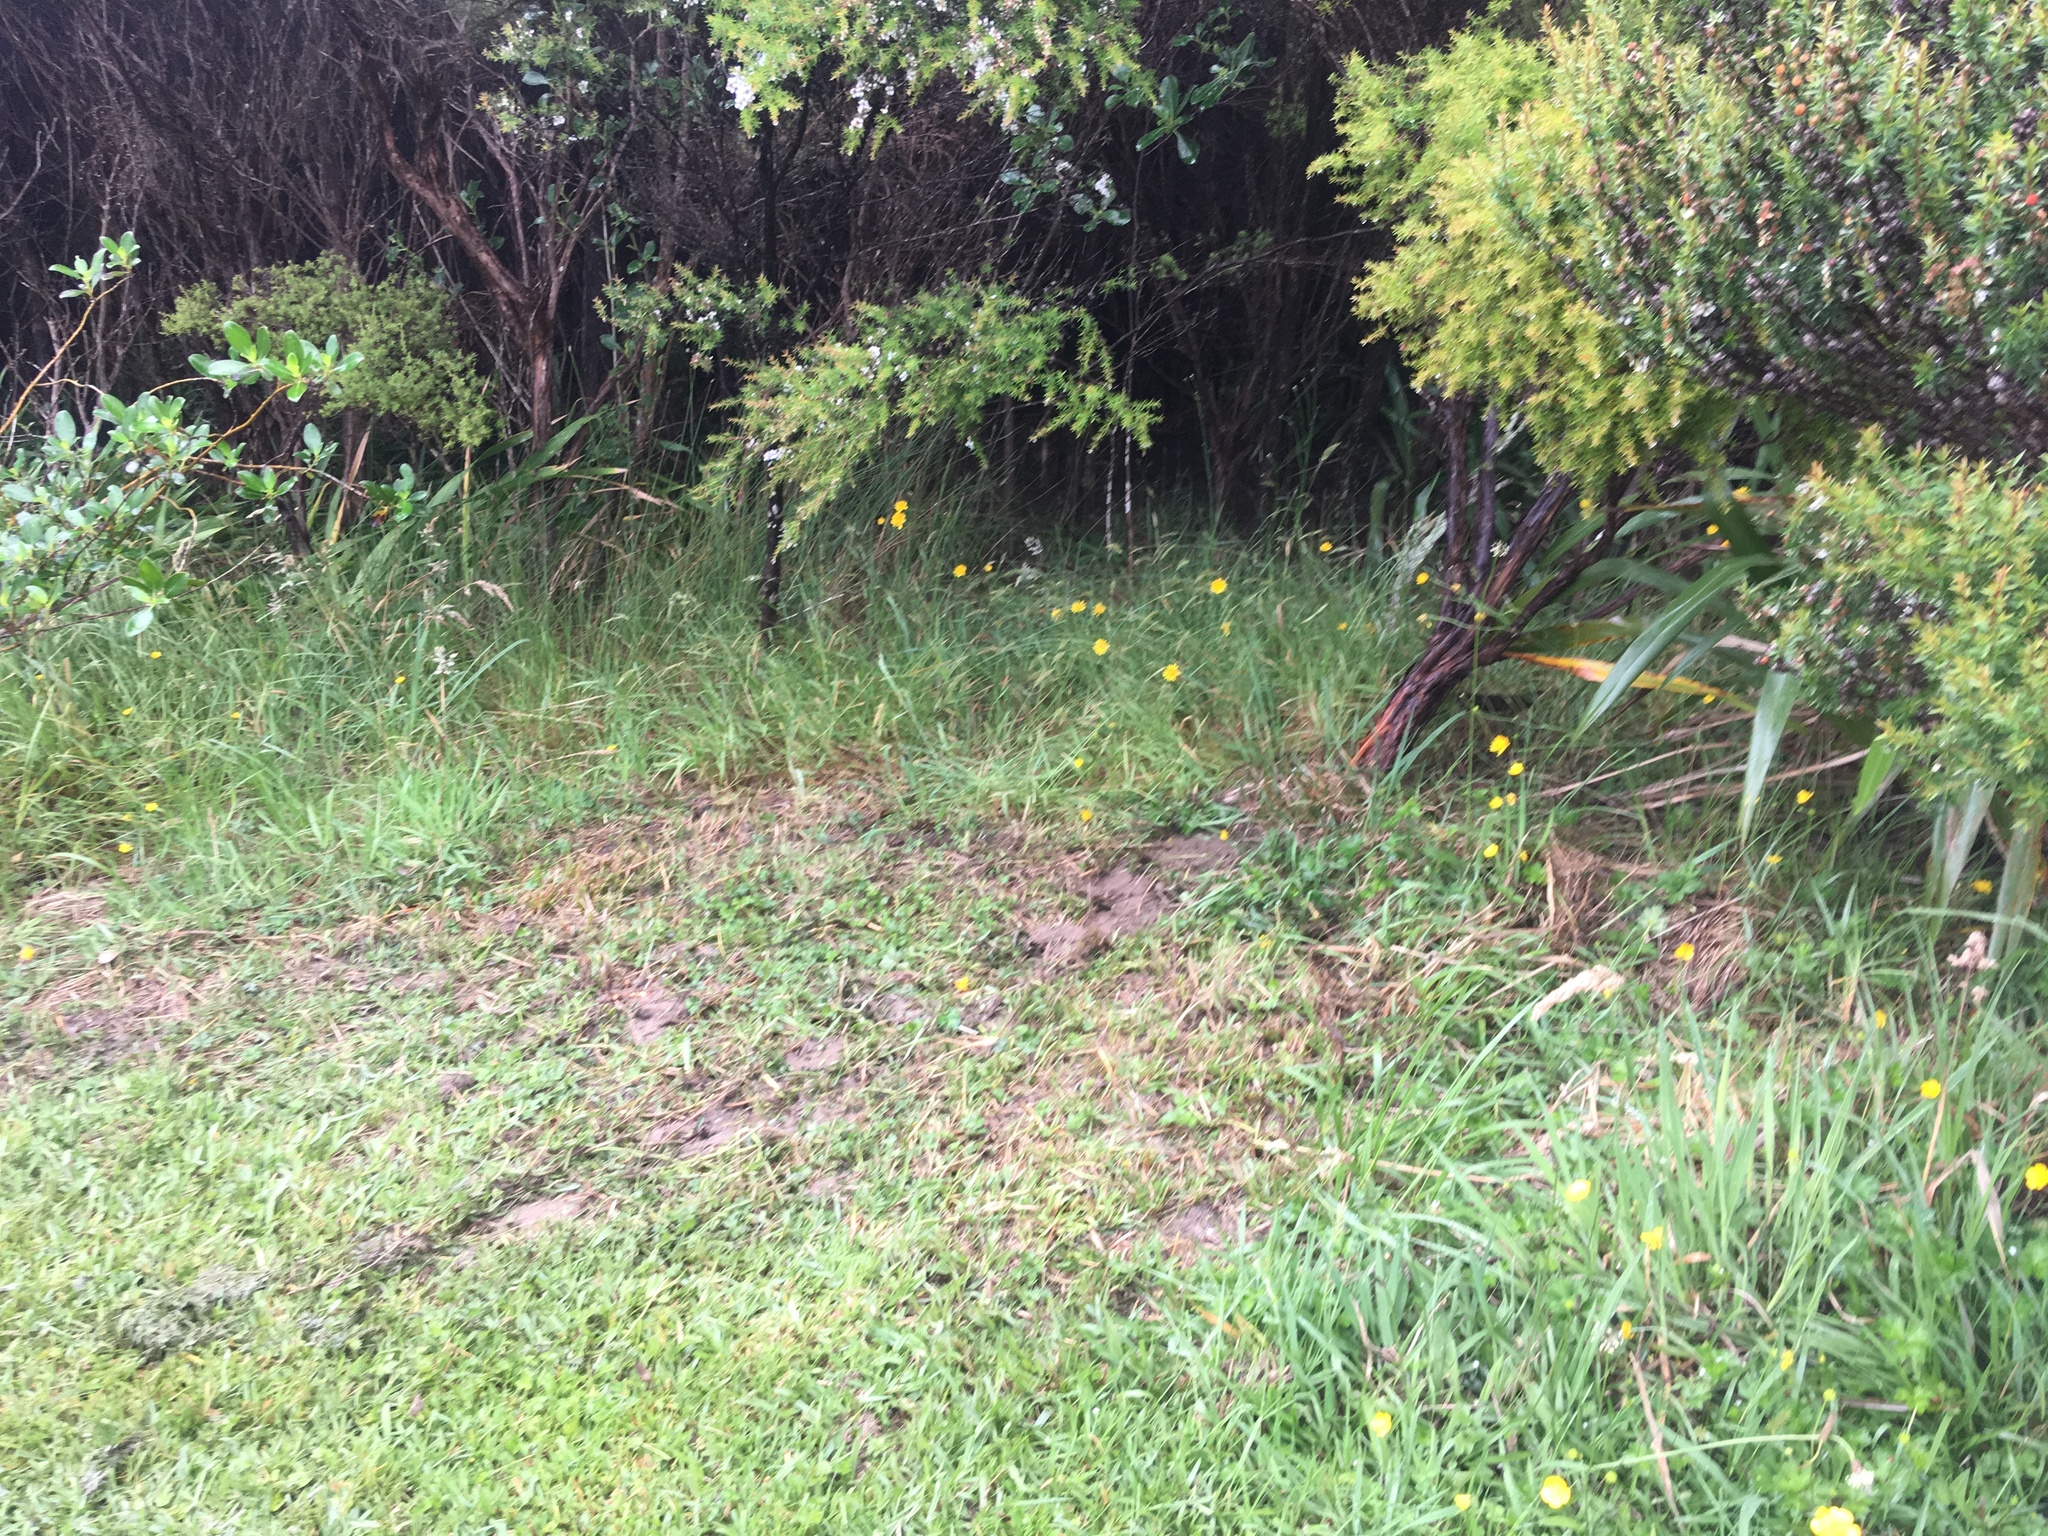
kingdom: Plantae
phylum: Tracheophyta
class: Liliopsida
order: Poales
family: Poaceae
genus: Axonopus
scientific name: Axonopus fissifolius
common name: Common carpetgrass
